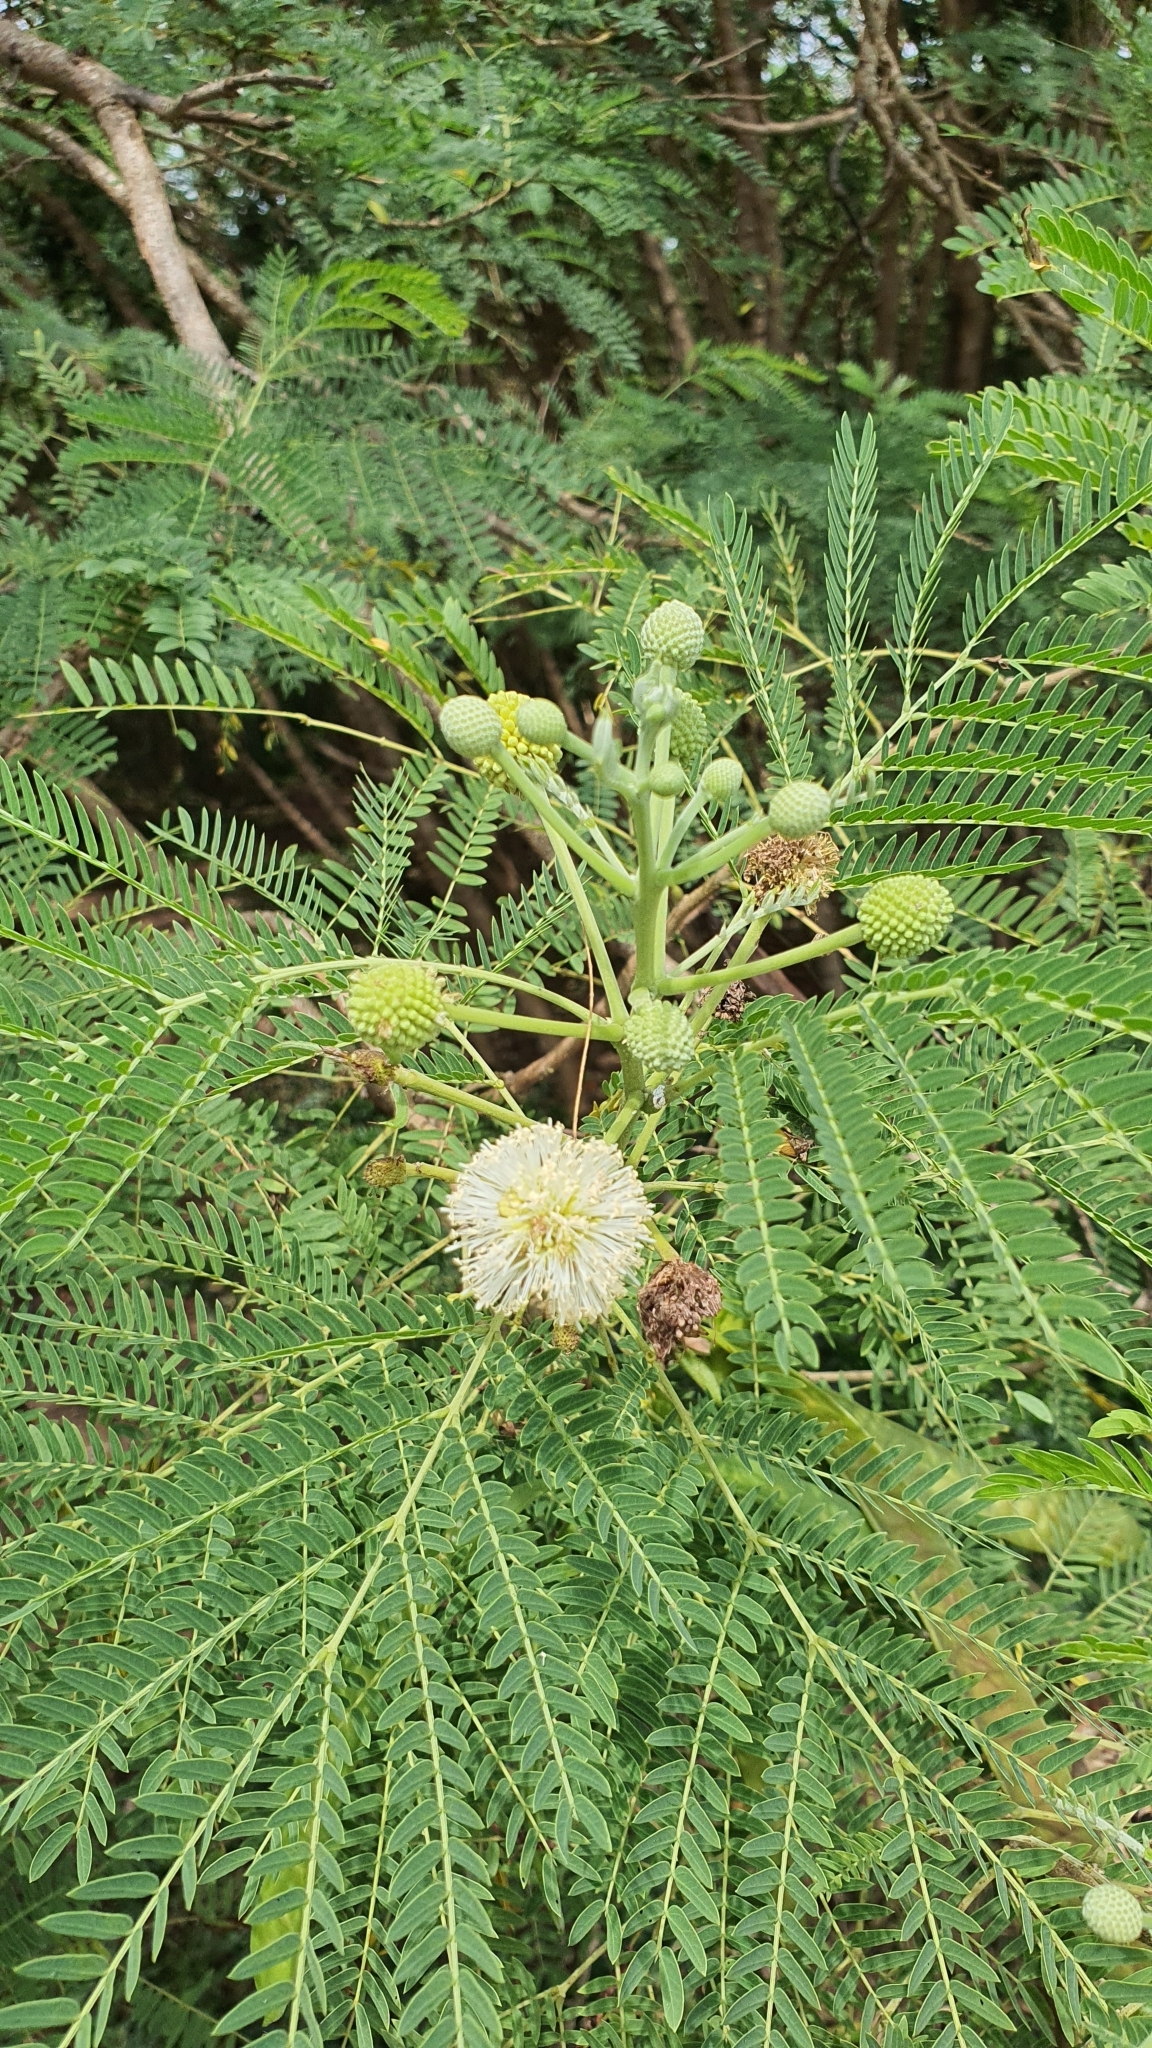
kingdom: Plantae
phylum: Tracheophyta
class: Magnoliopsida
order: Fabales
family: Fabaceae
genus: Leucaena
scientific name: Leucaena leucocephala
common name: White leadtree
